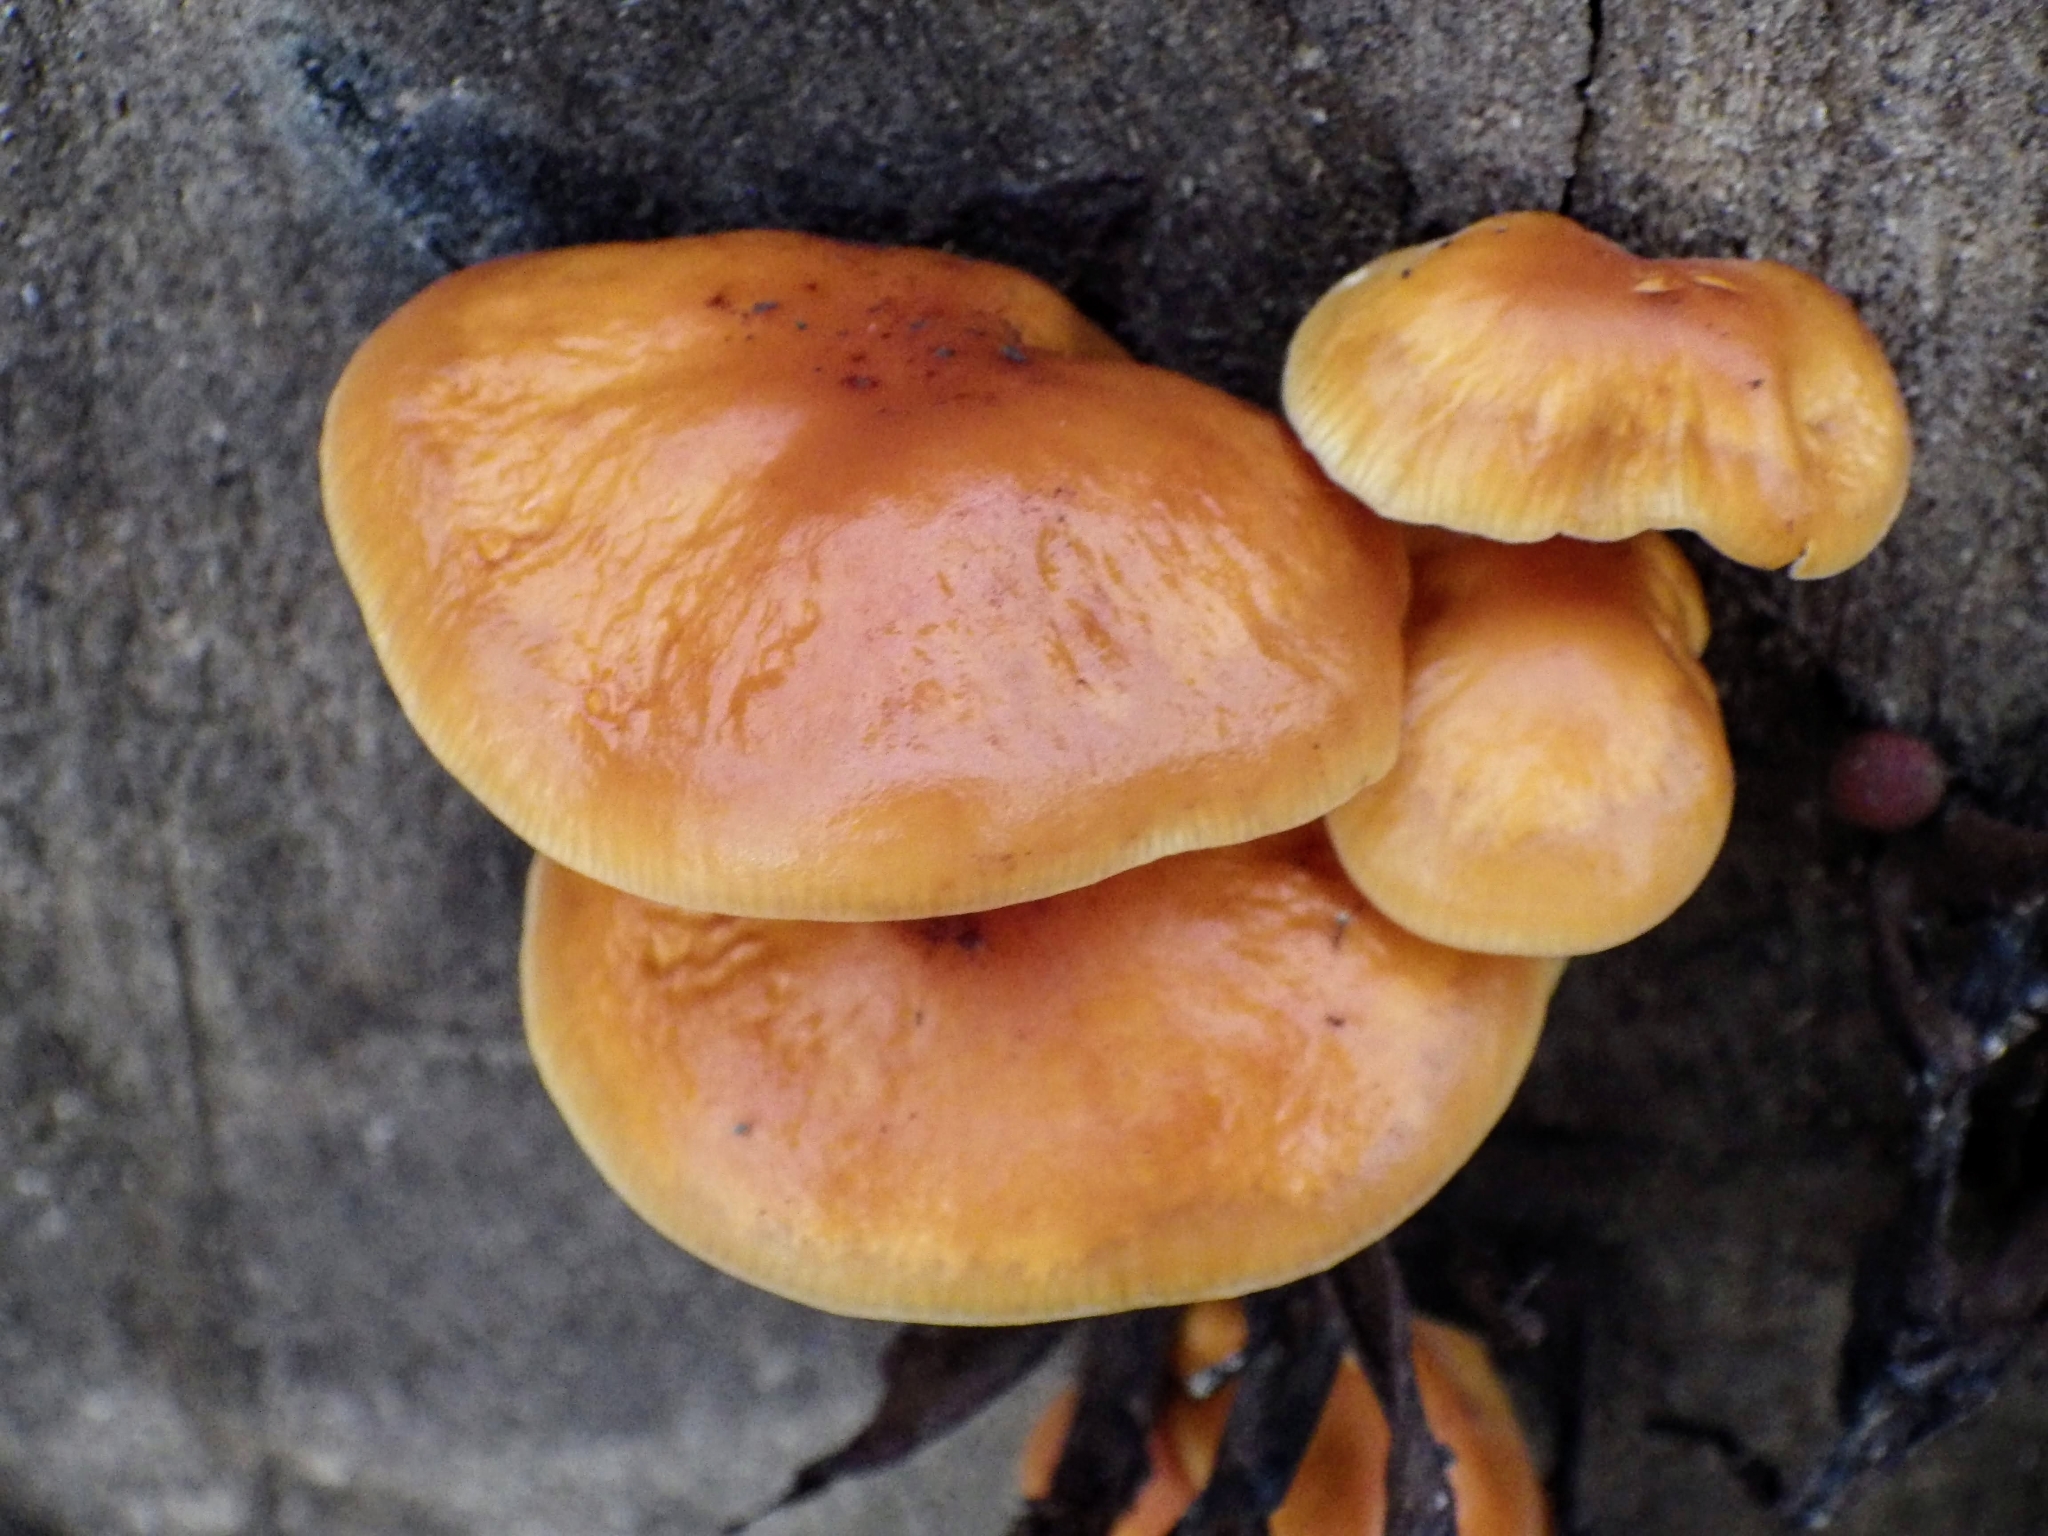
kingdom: Fungi
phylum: Basidiomycota
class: Agaricomycetes
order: Agaricales
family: Physalacriaceae
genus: Flammulina
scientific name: Flammulina
